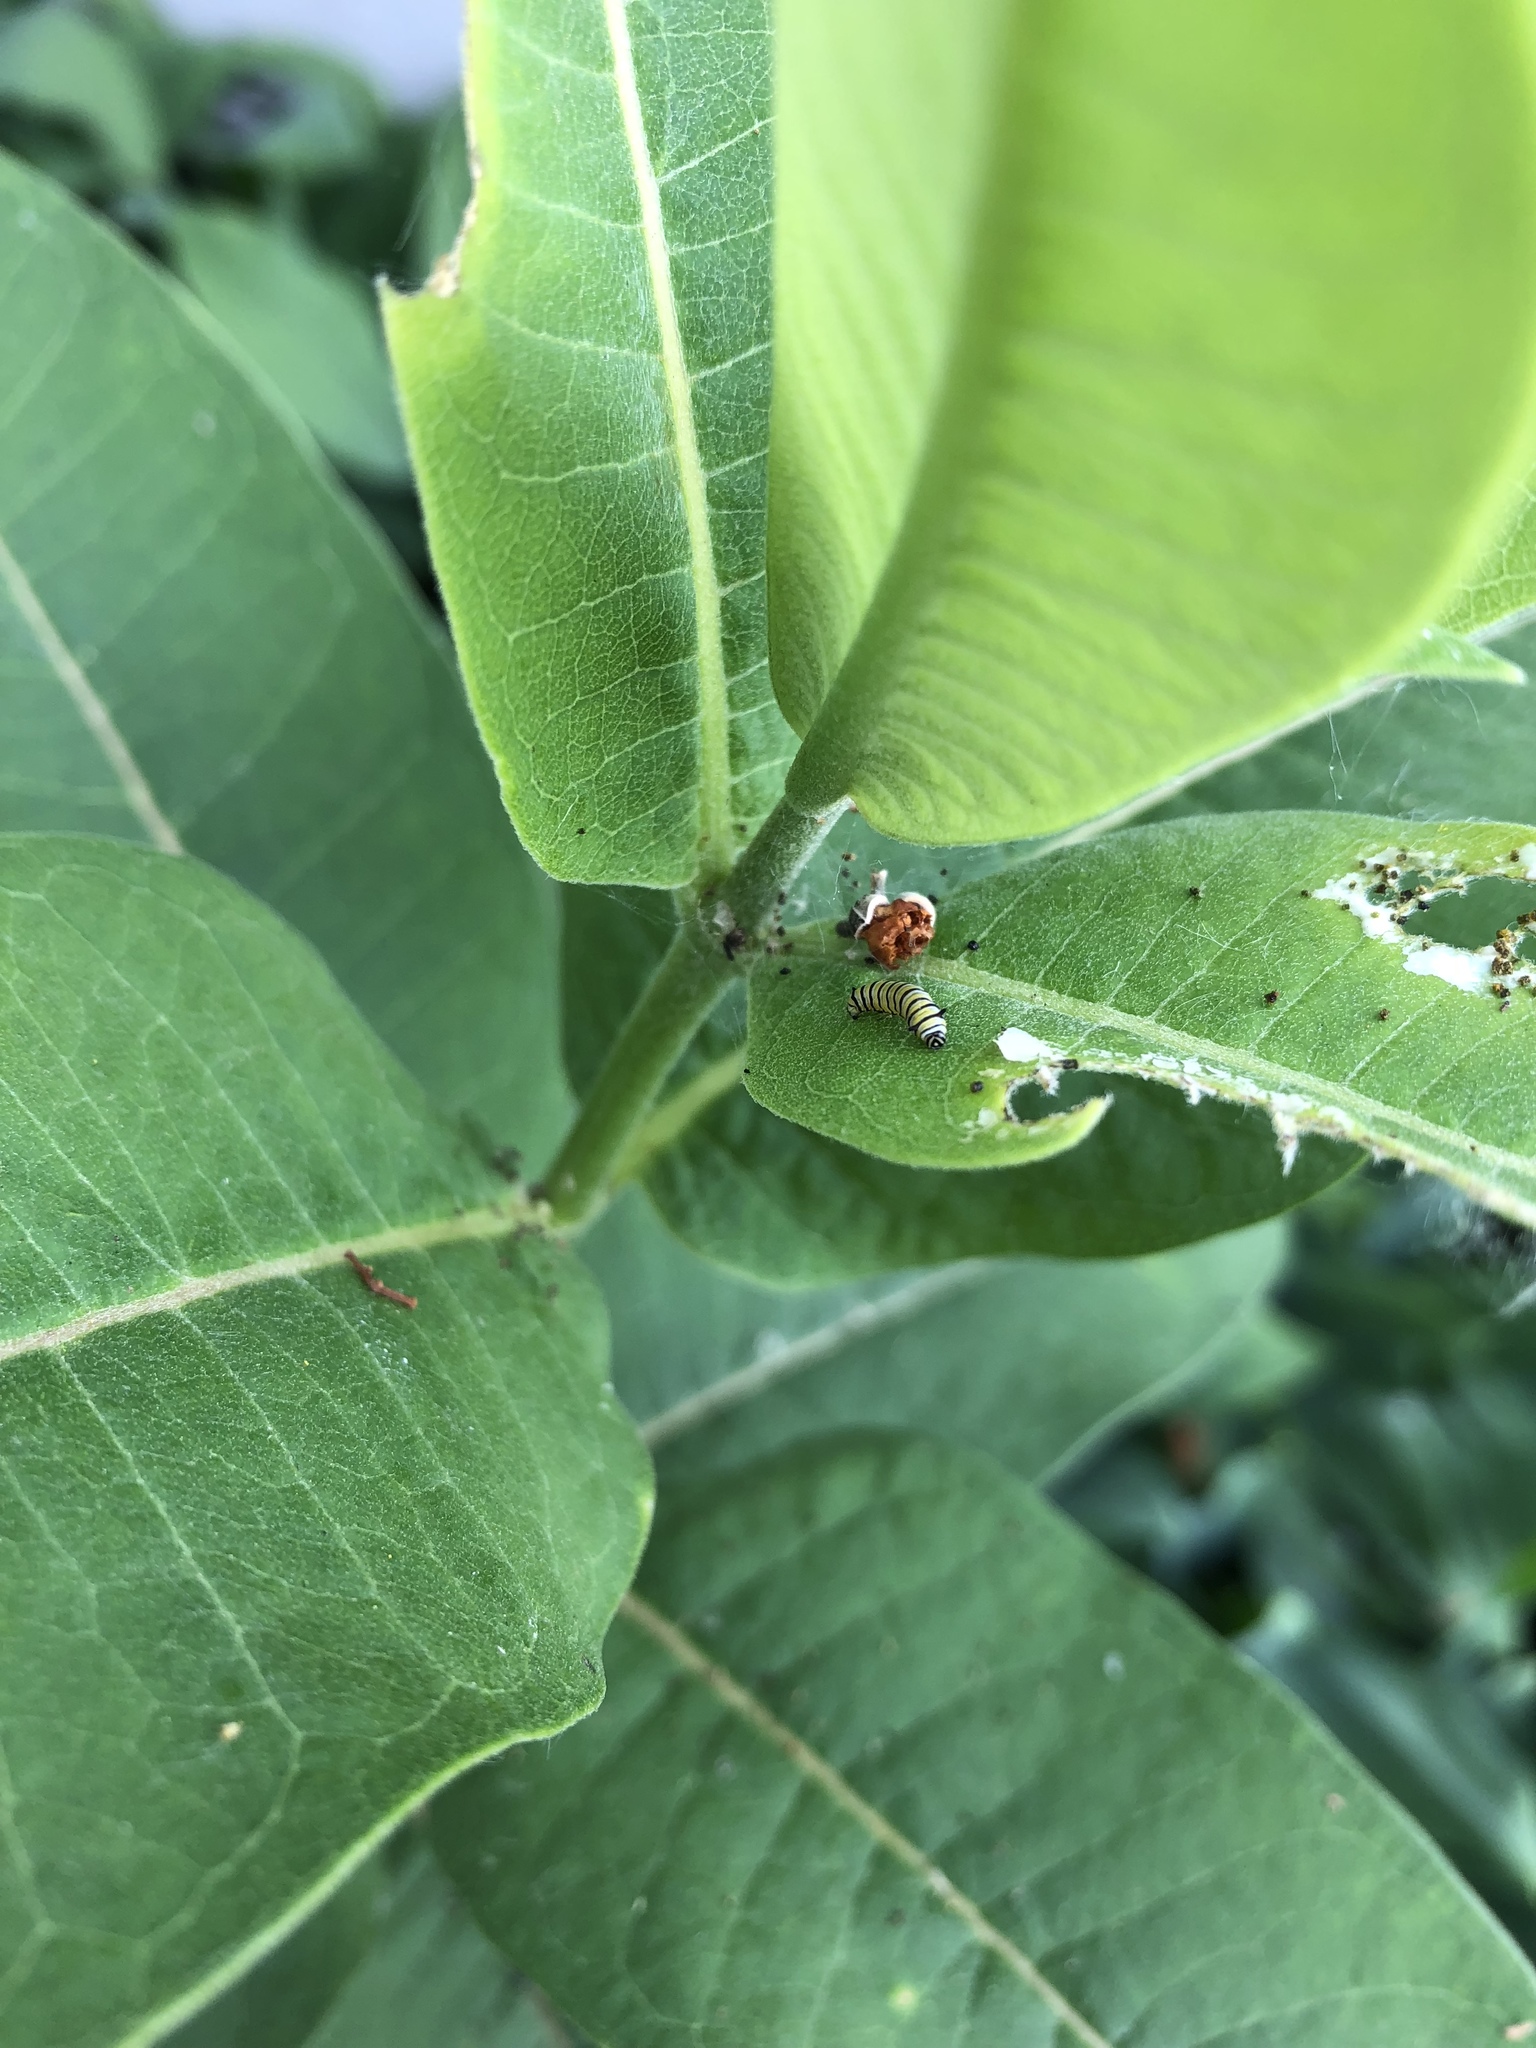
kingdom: Animalia
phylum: Arthropoda
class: Insecta
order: Lepidoptera
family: Nymphalidae
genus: Danaus
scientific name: Danaus plexippus
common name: Monarch
